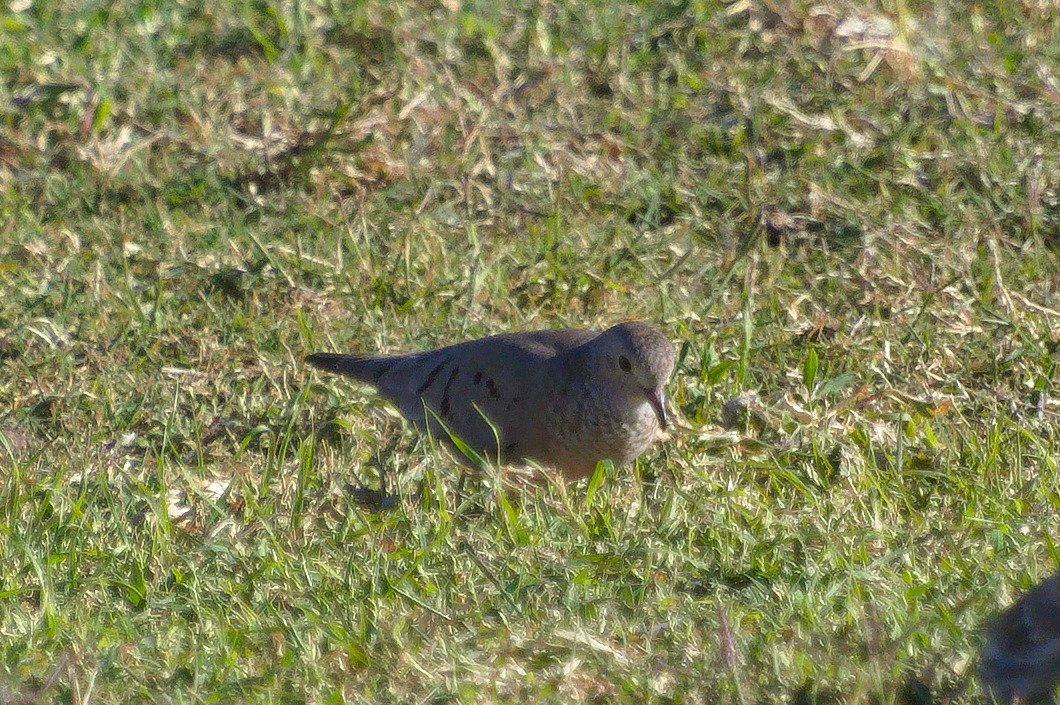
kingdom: Animalia
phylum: Chordata
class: Aves
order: Columbiformes
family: Columbidae
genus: Columbina
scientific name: Columbina passerina
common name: Common ground-dove
